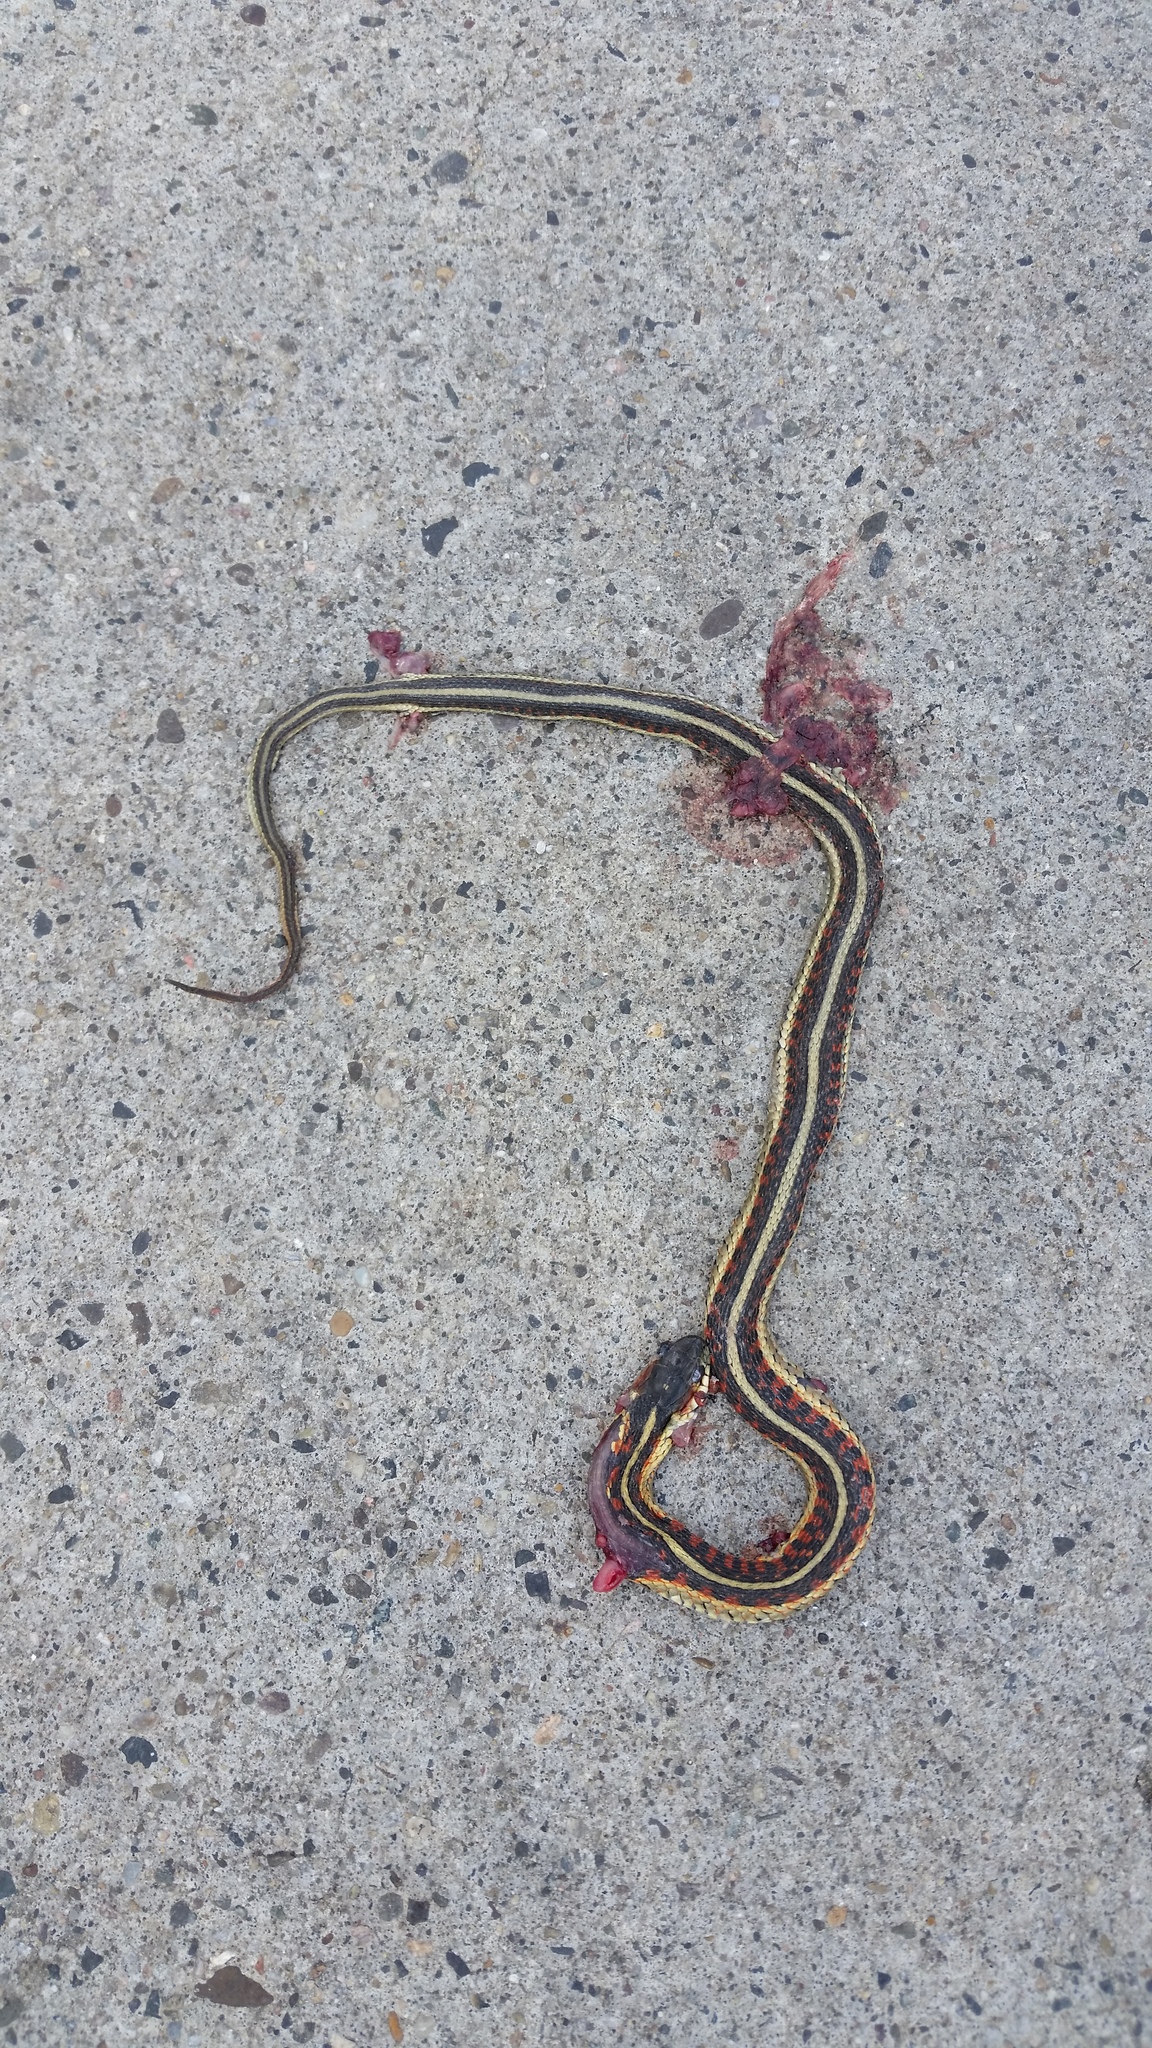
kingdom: Animalia
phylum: Chordata
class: Squamata
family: Colubridae
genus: Thamnophis
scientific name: Thamnophis sirtalis
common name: Common garter snake
